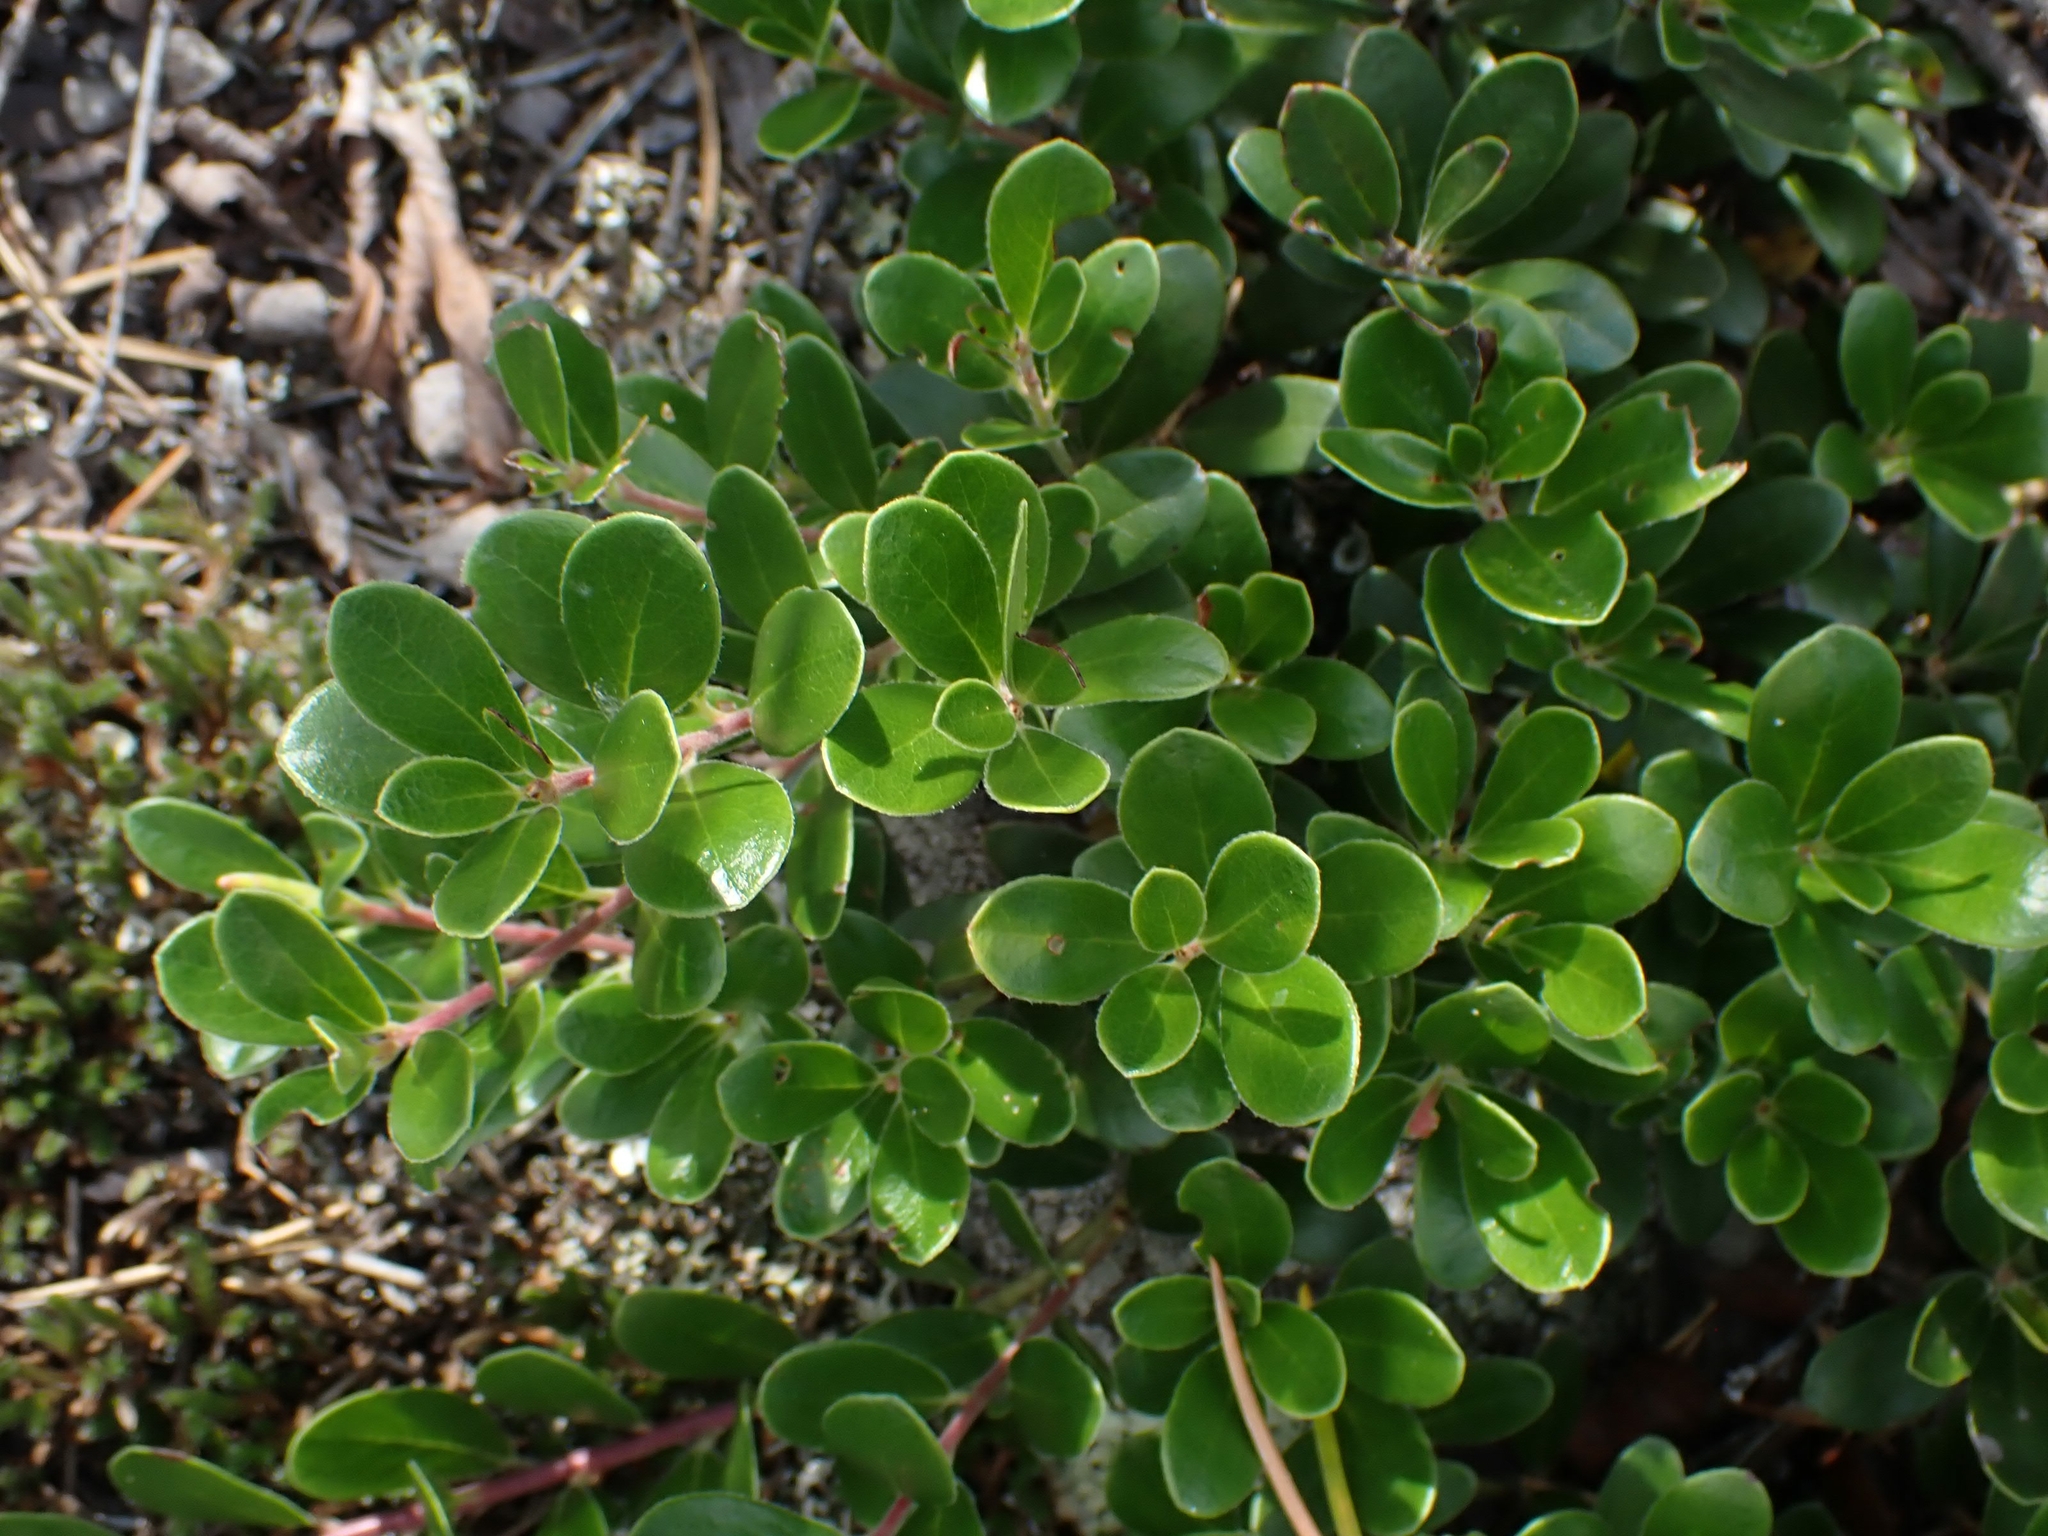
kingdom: Plantae
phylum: Tracheophyta
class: Magnoliopsida
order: Ericales
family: Ericaceae
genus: Arctostaphylos
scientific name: Arctostaphylos uva-ursi
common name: Bearberry
